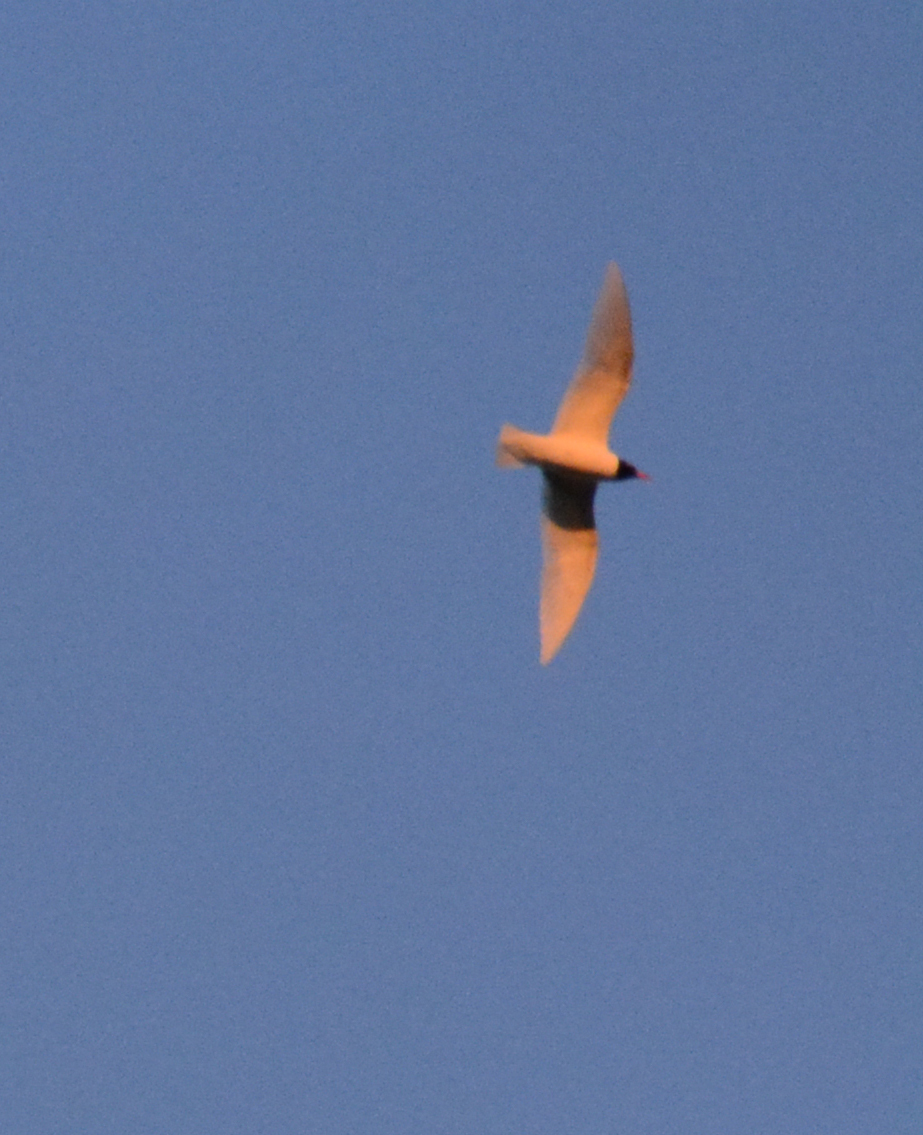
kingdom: Animalia
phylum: Chordata
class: Aves
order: Charadriiformes
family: Laridae
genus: Ichthyaetus
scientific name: Ichthyaetus melanocephalus
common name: Mediterranean gull
